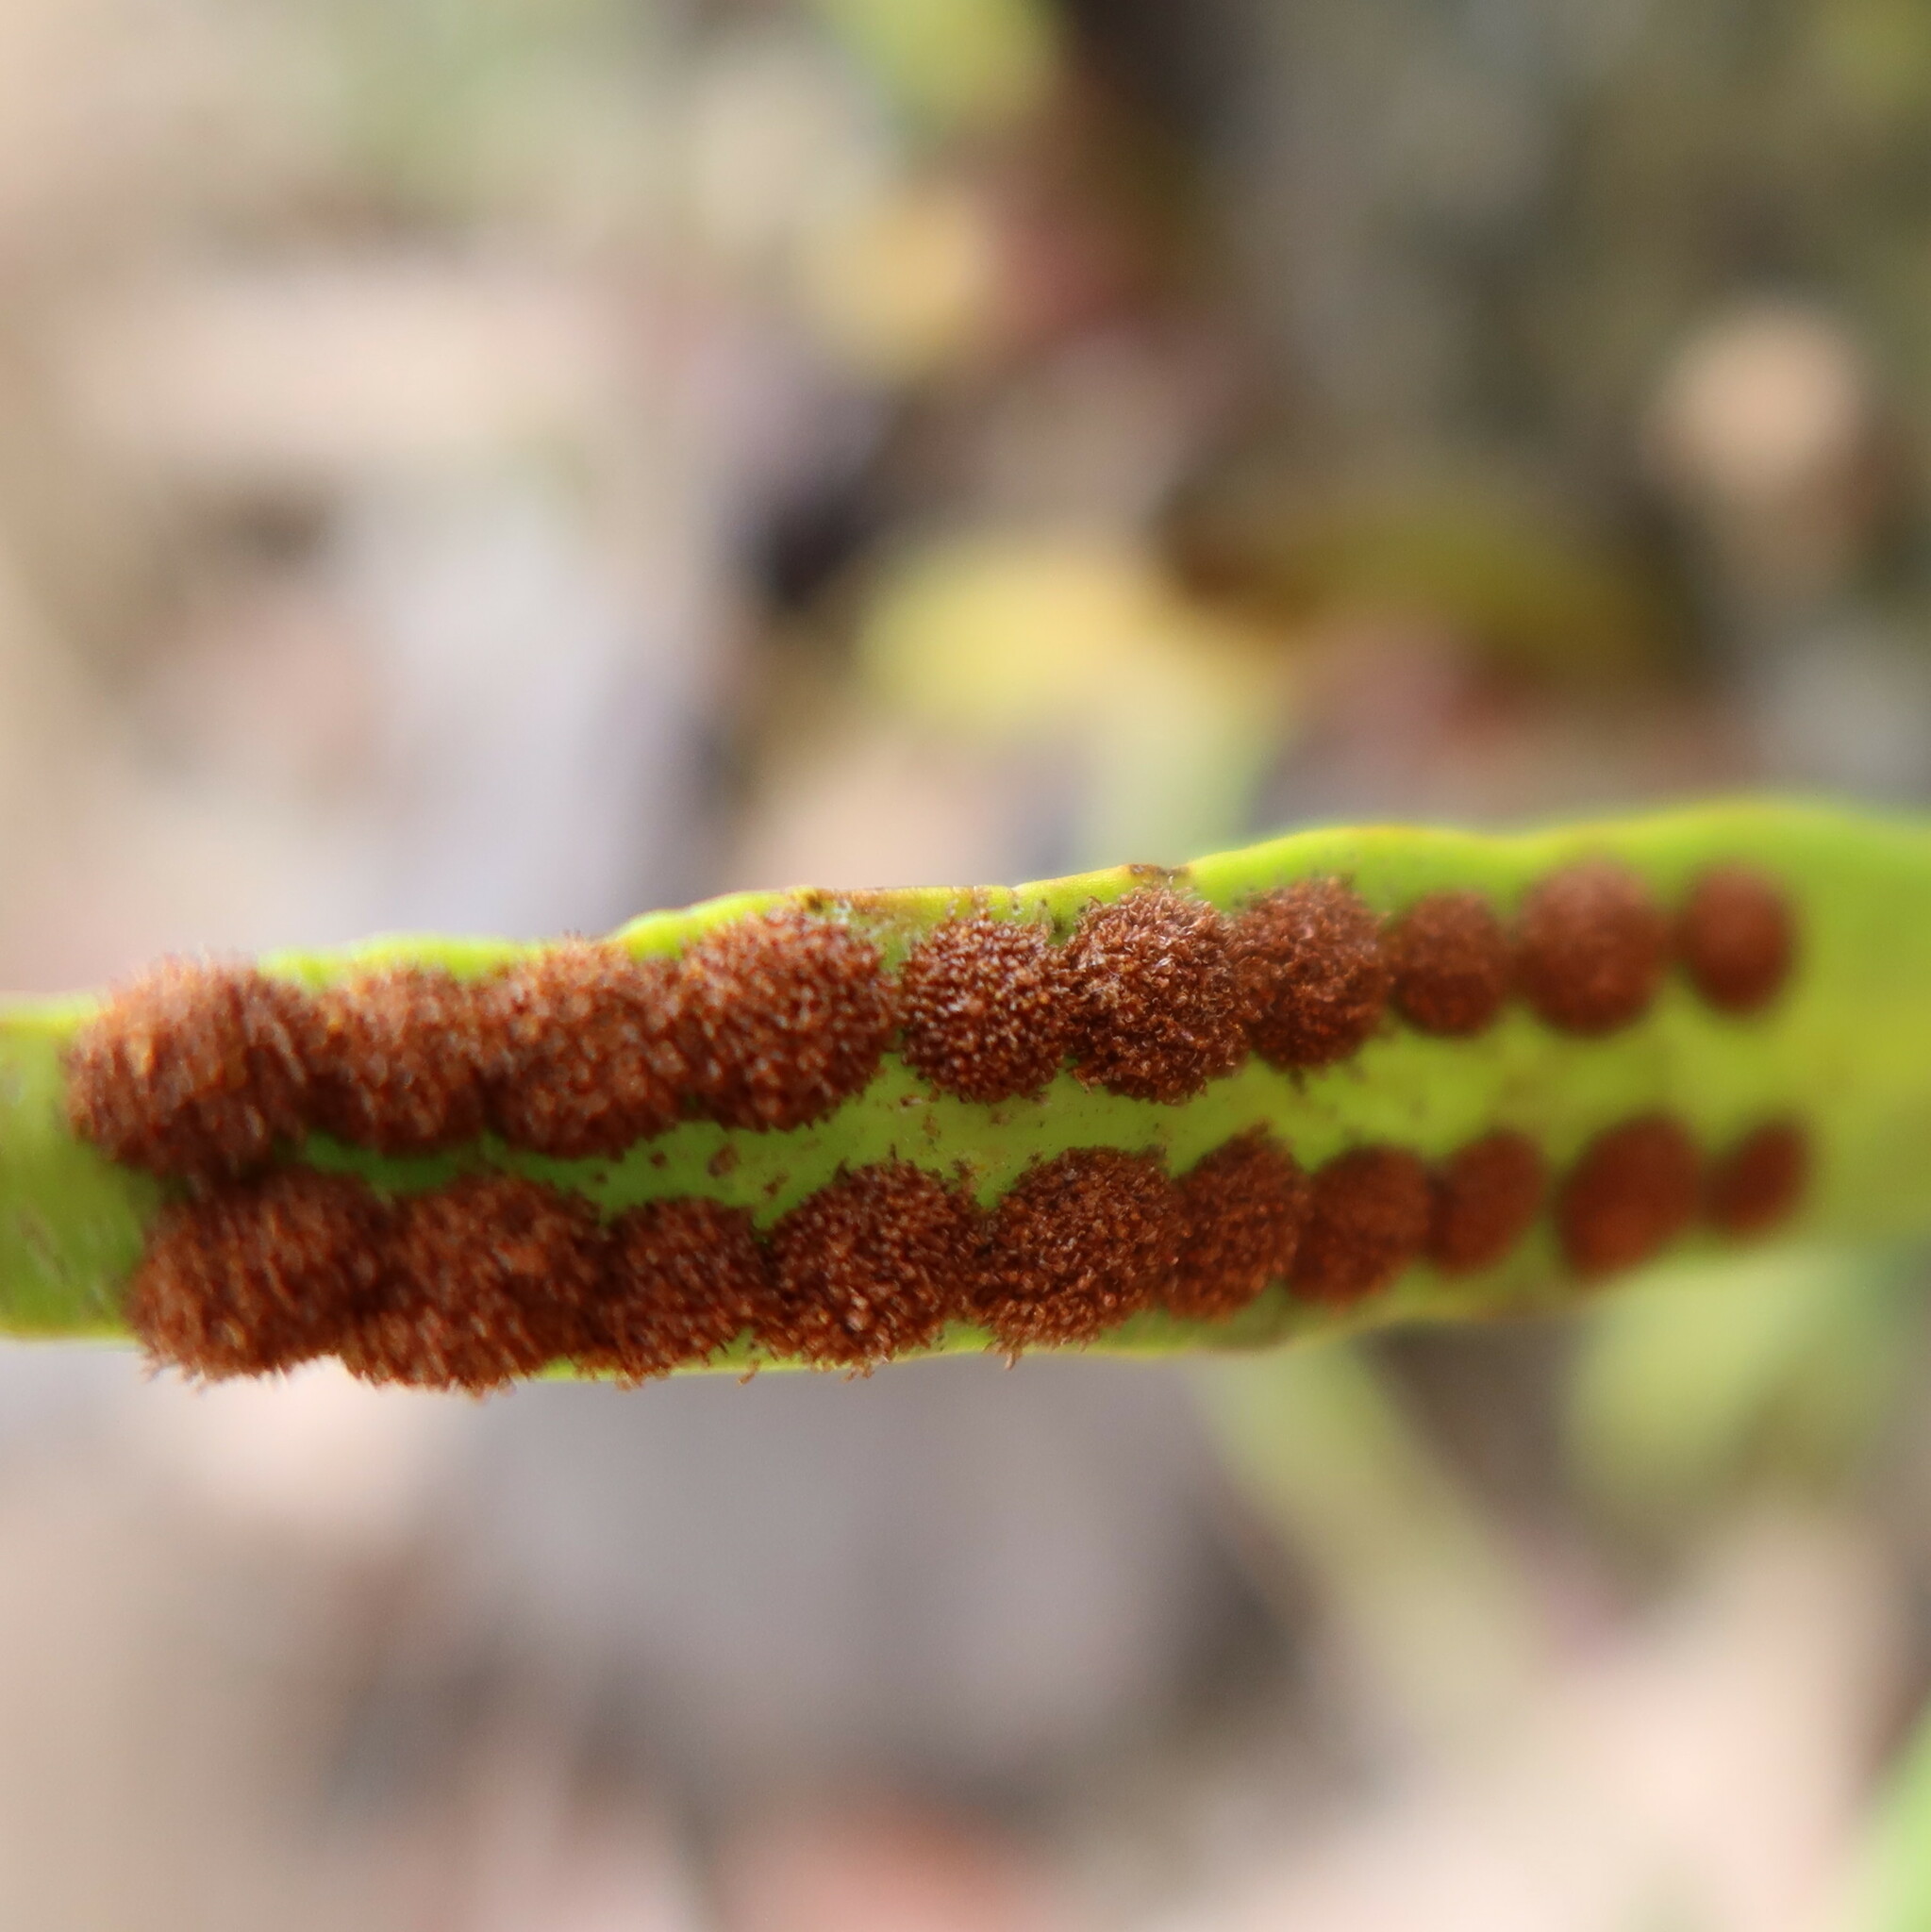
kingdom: Plantae
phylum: Tracheophyta
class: Polypodiopsida
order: Polypodiales
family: Polypodiaceae
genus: Pleopeltis
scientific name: Pleopeltis macrocarpa
